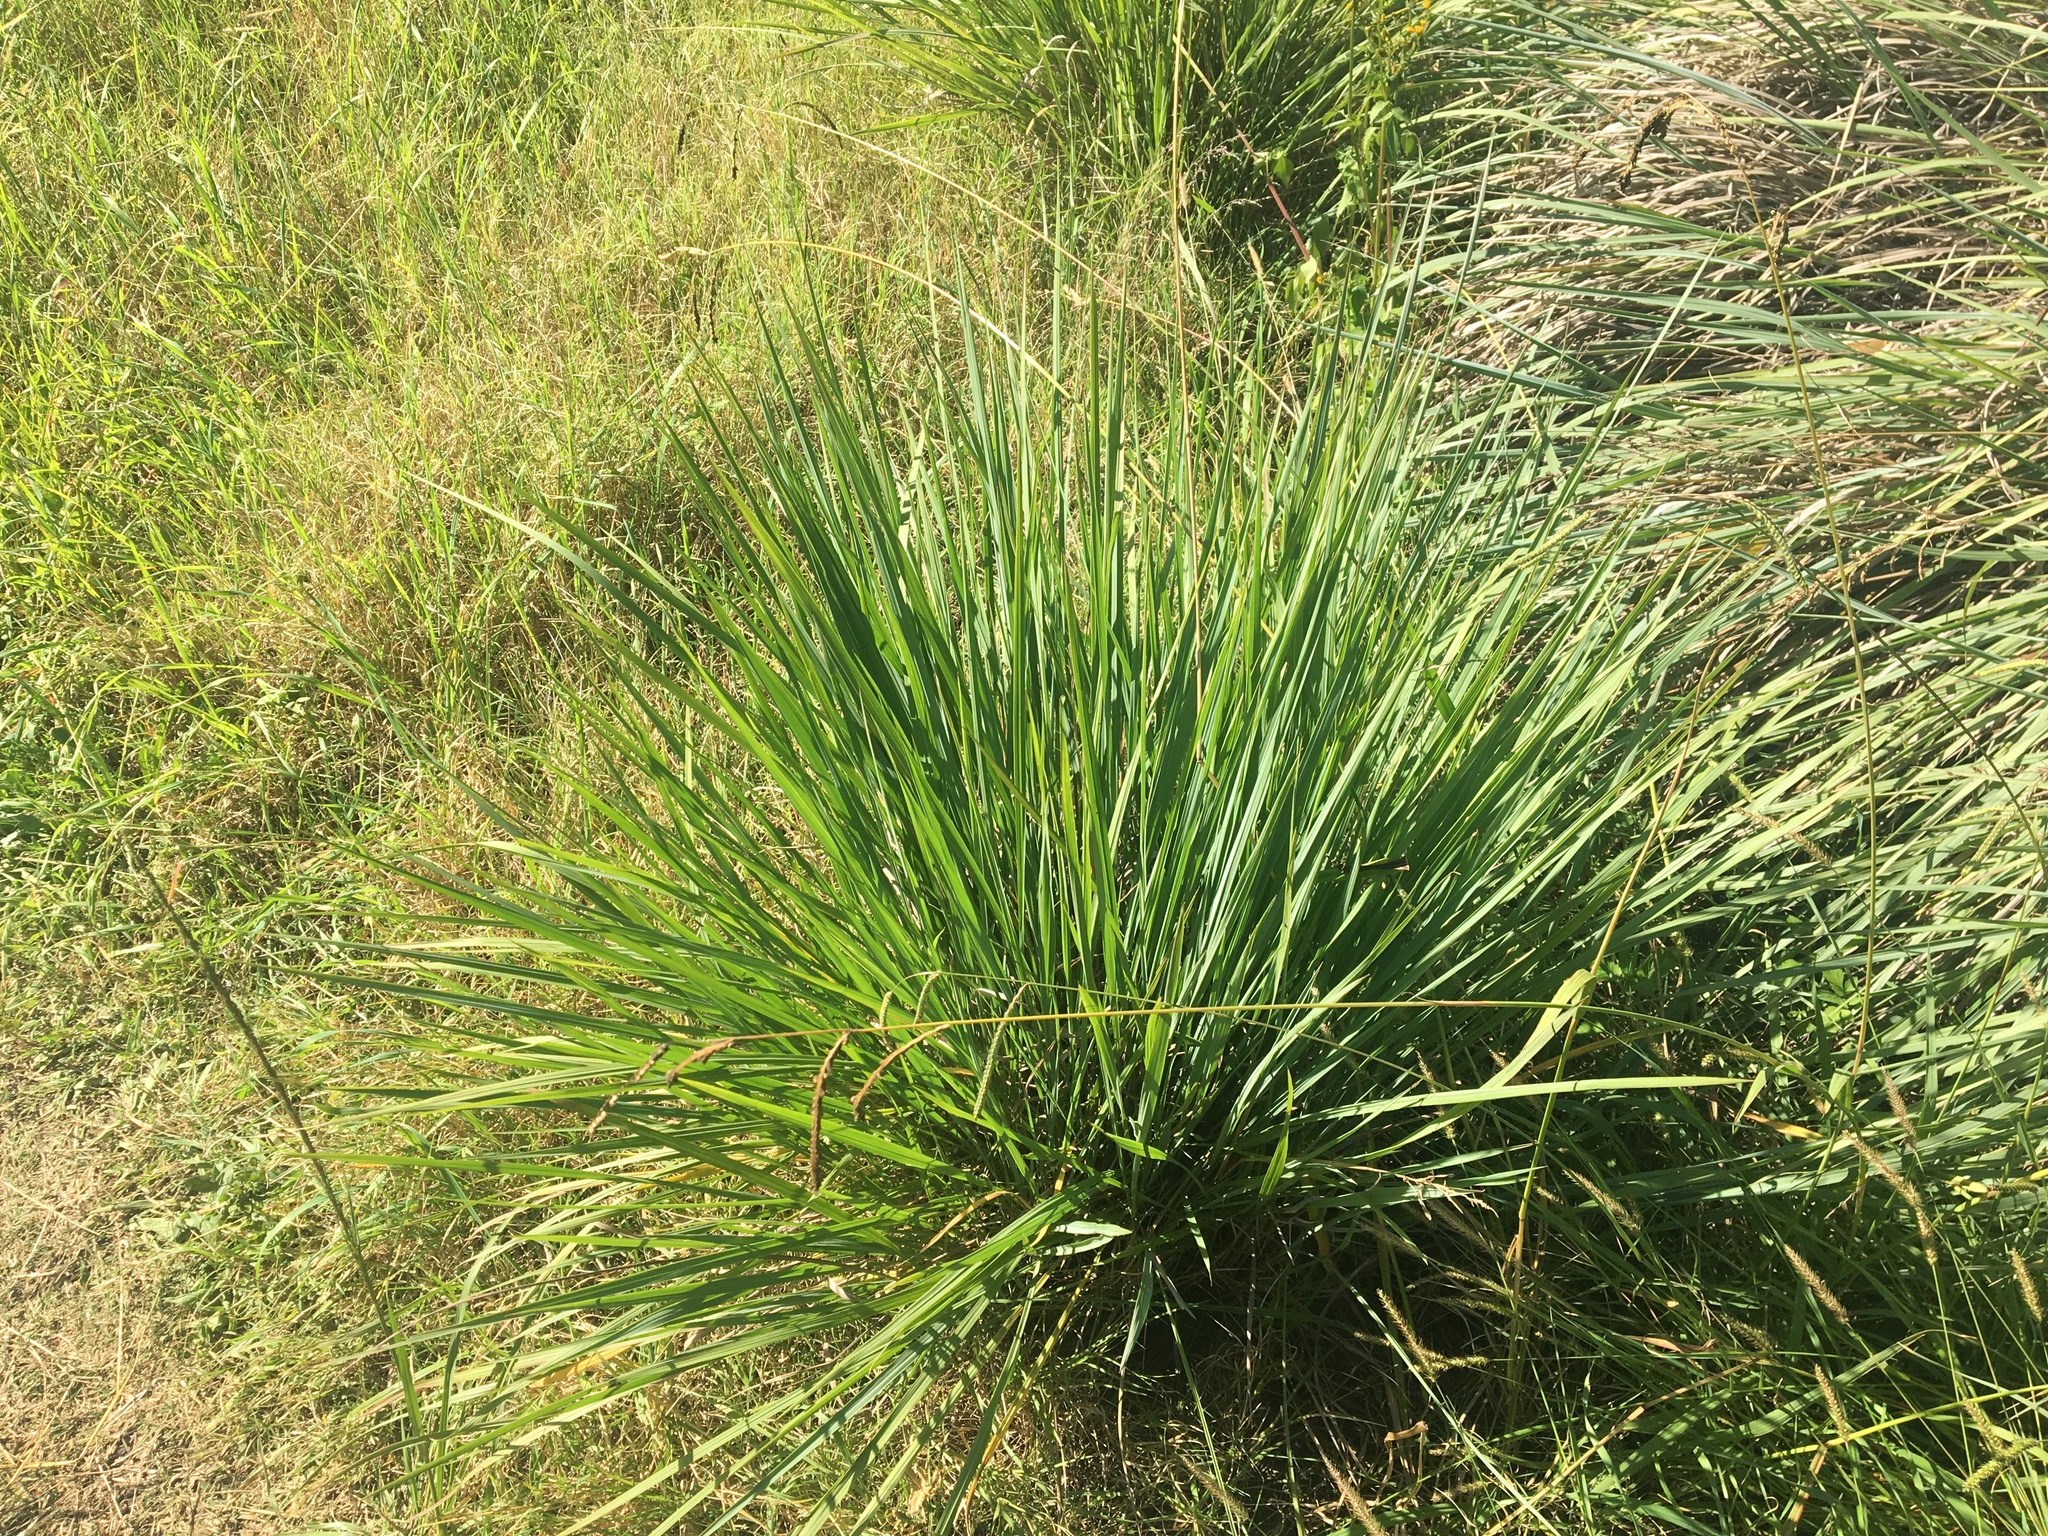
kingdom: Plantae
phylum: Tracheophyta
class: Liliopsida
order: Poales
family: Poaceae
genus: Paspalum
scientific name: Paspalum quadrifarium
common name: Tussock paspalum
